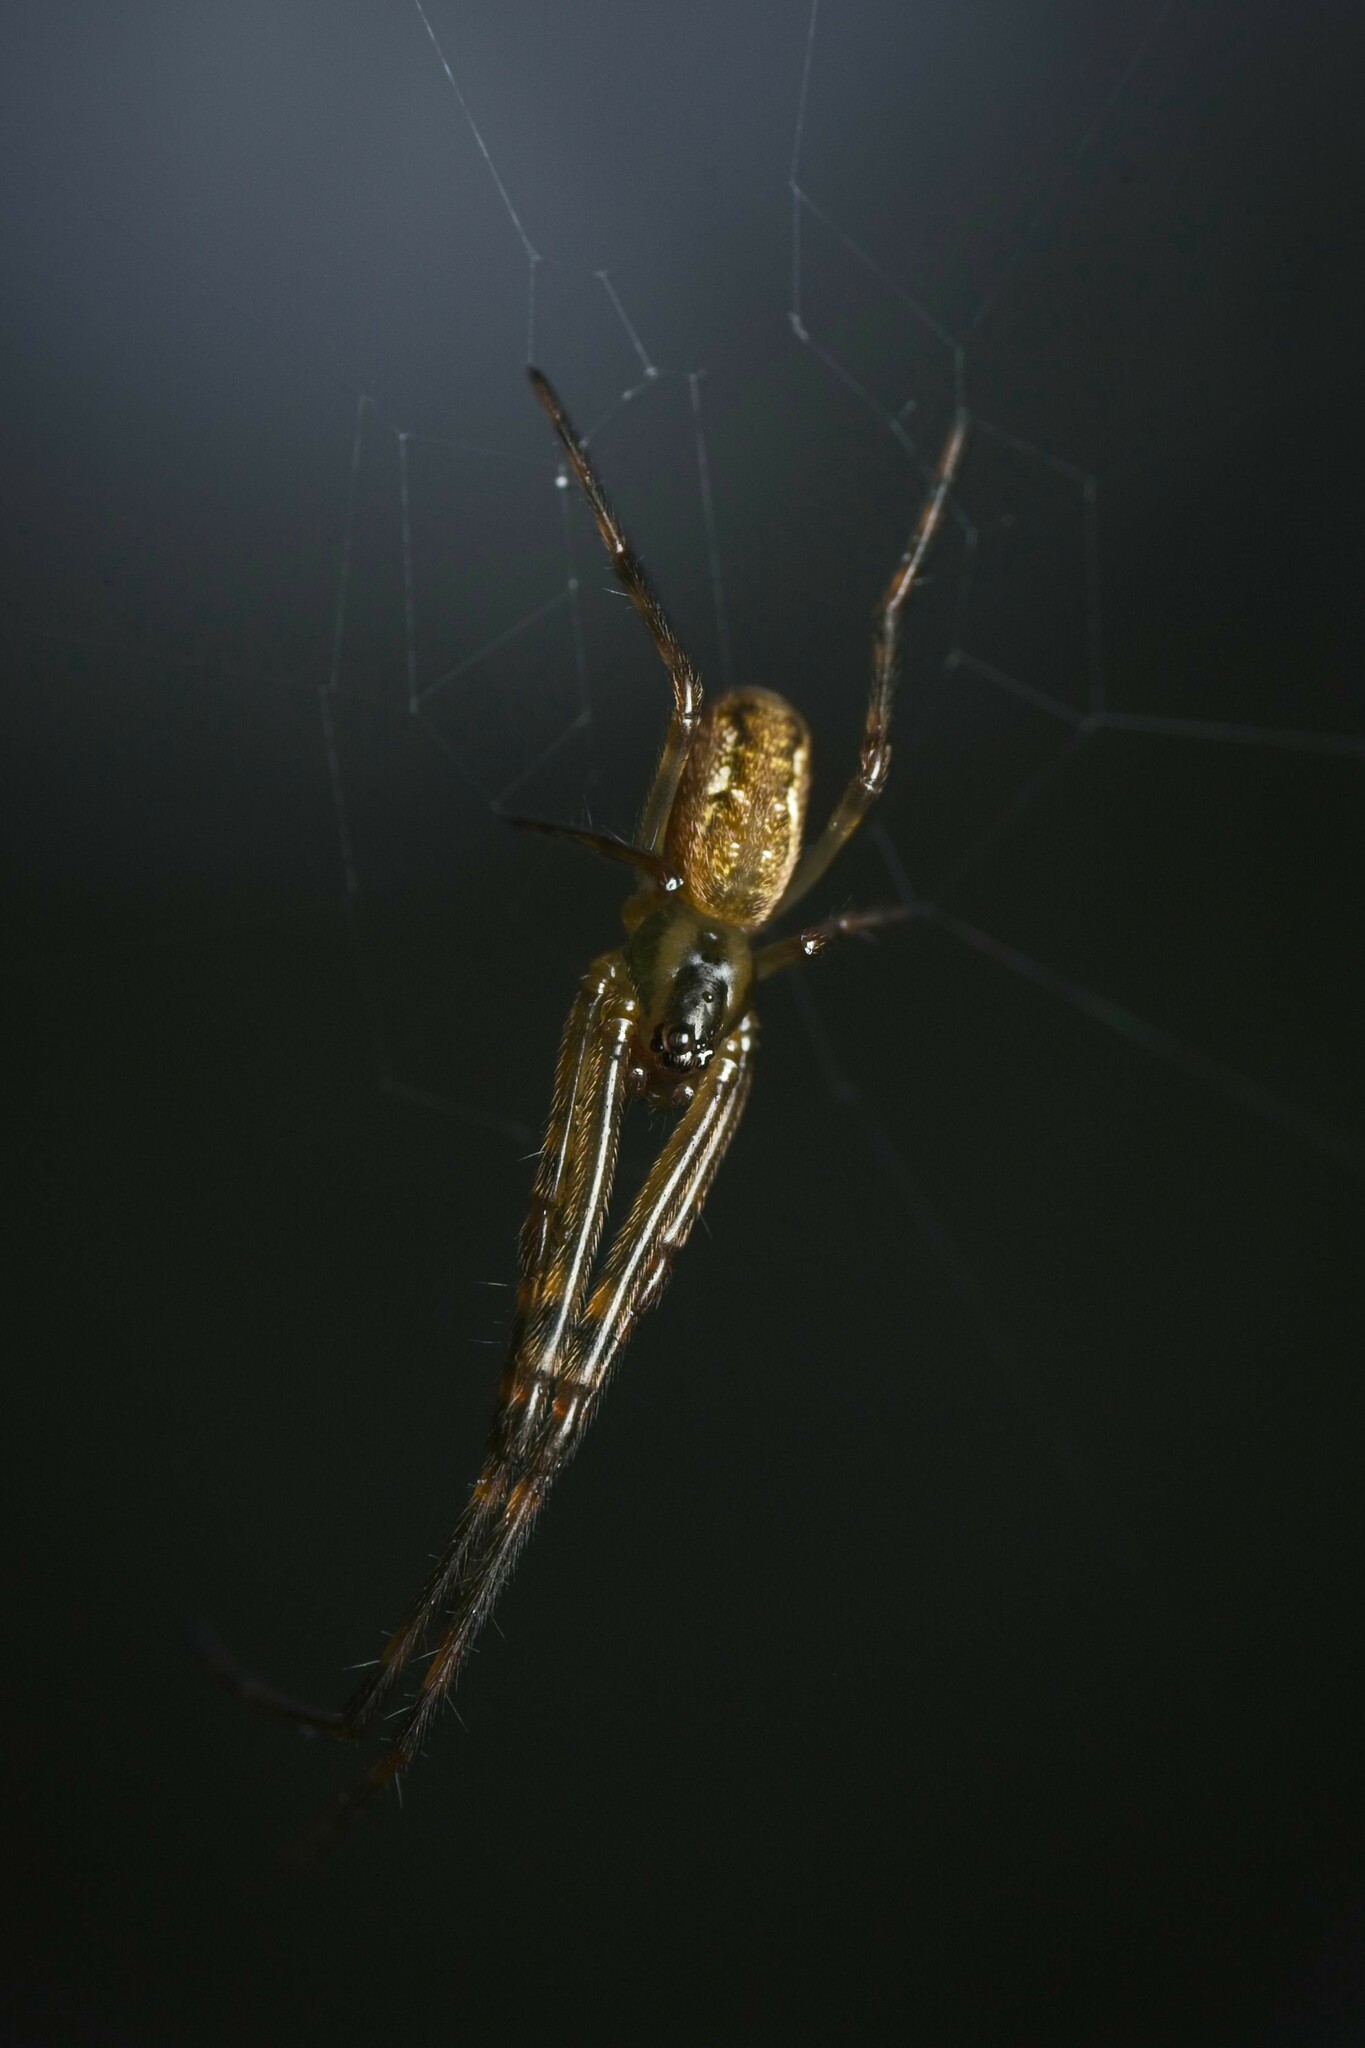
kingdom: Animalia
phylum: Arthropoda
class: Arachnida
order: Araneae
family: Tetragnathidae
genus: Nanometa
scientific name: Nanometa lagenifera
